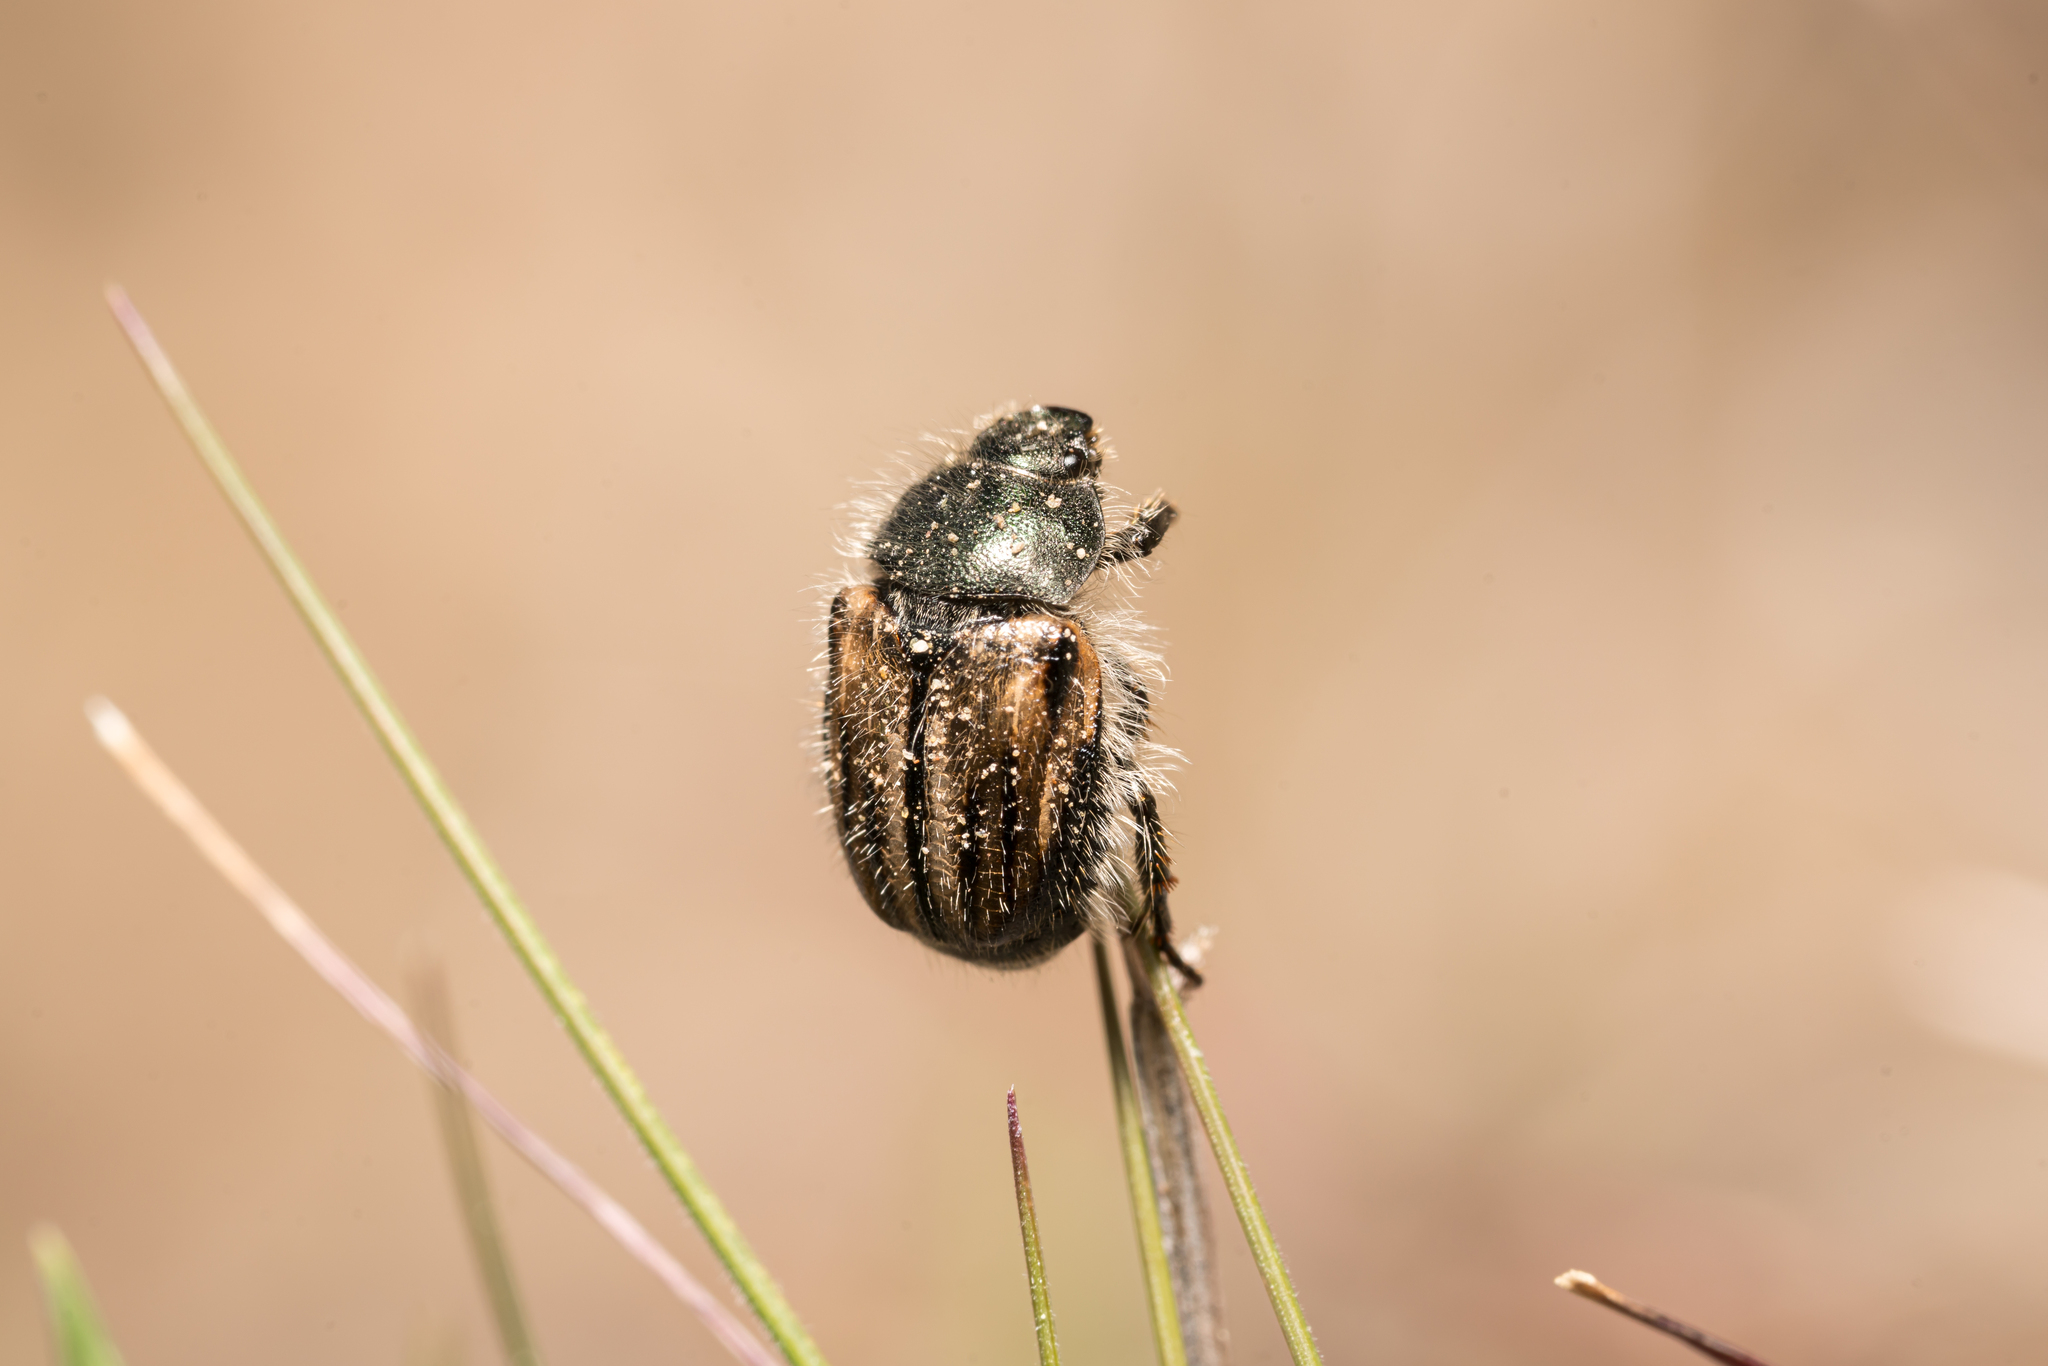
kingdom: Animalia
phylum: Arthropoda
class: Insecta
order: Coleoptera
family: Scarabaeidae
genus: Blitopertha
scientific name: Blitopertha lineolata
